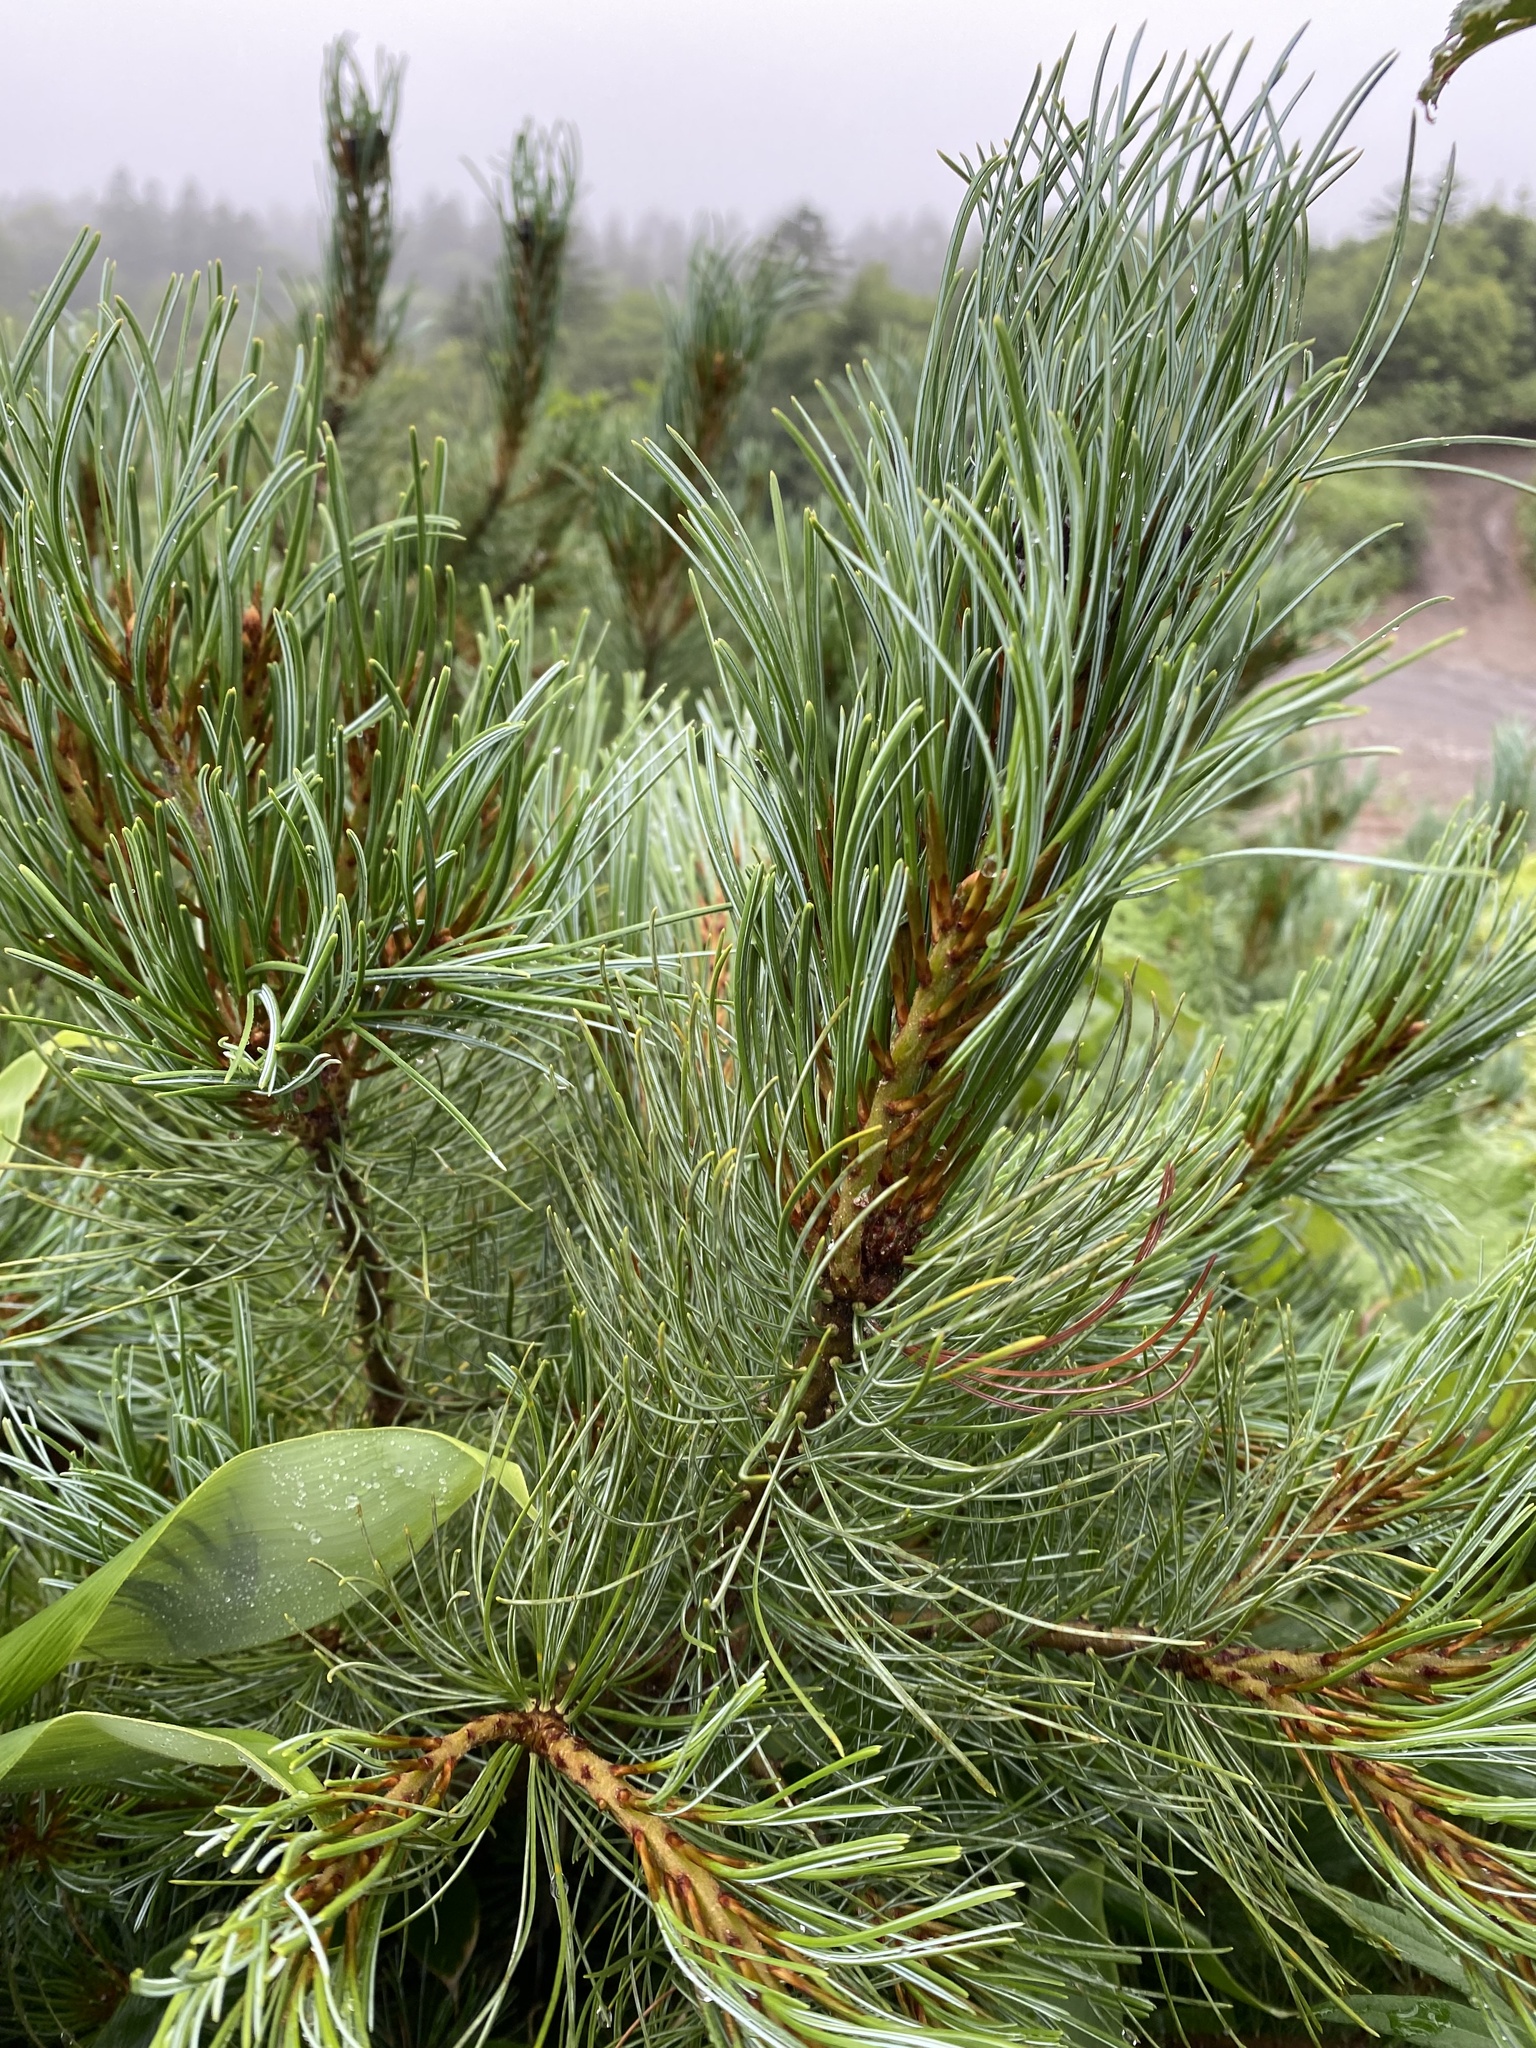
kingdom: Plantae
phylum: Tracheophyta
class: Pinopsida
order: Pinales
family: Pinaceae
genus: Pinus
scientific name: Pinus pumila
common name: Dwarf siberian pine
